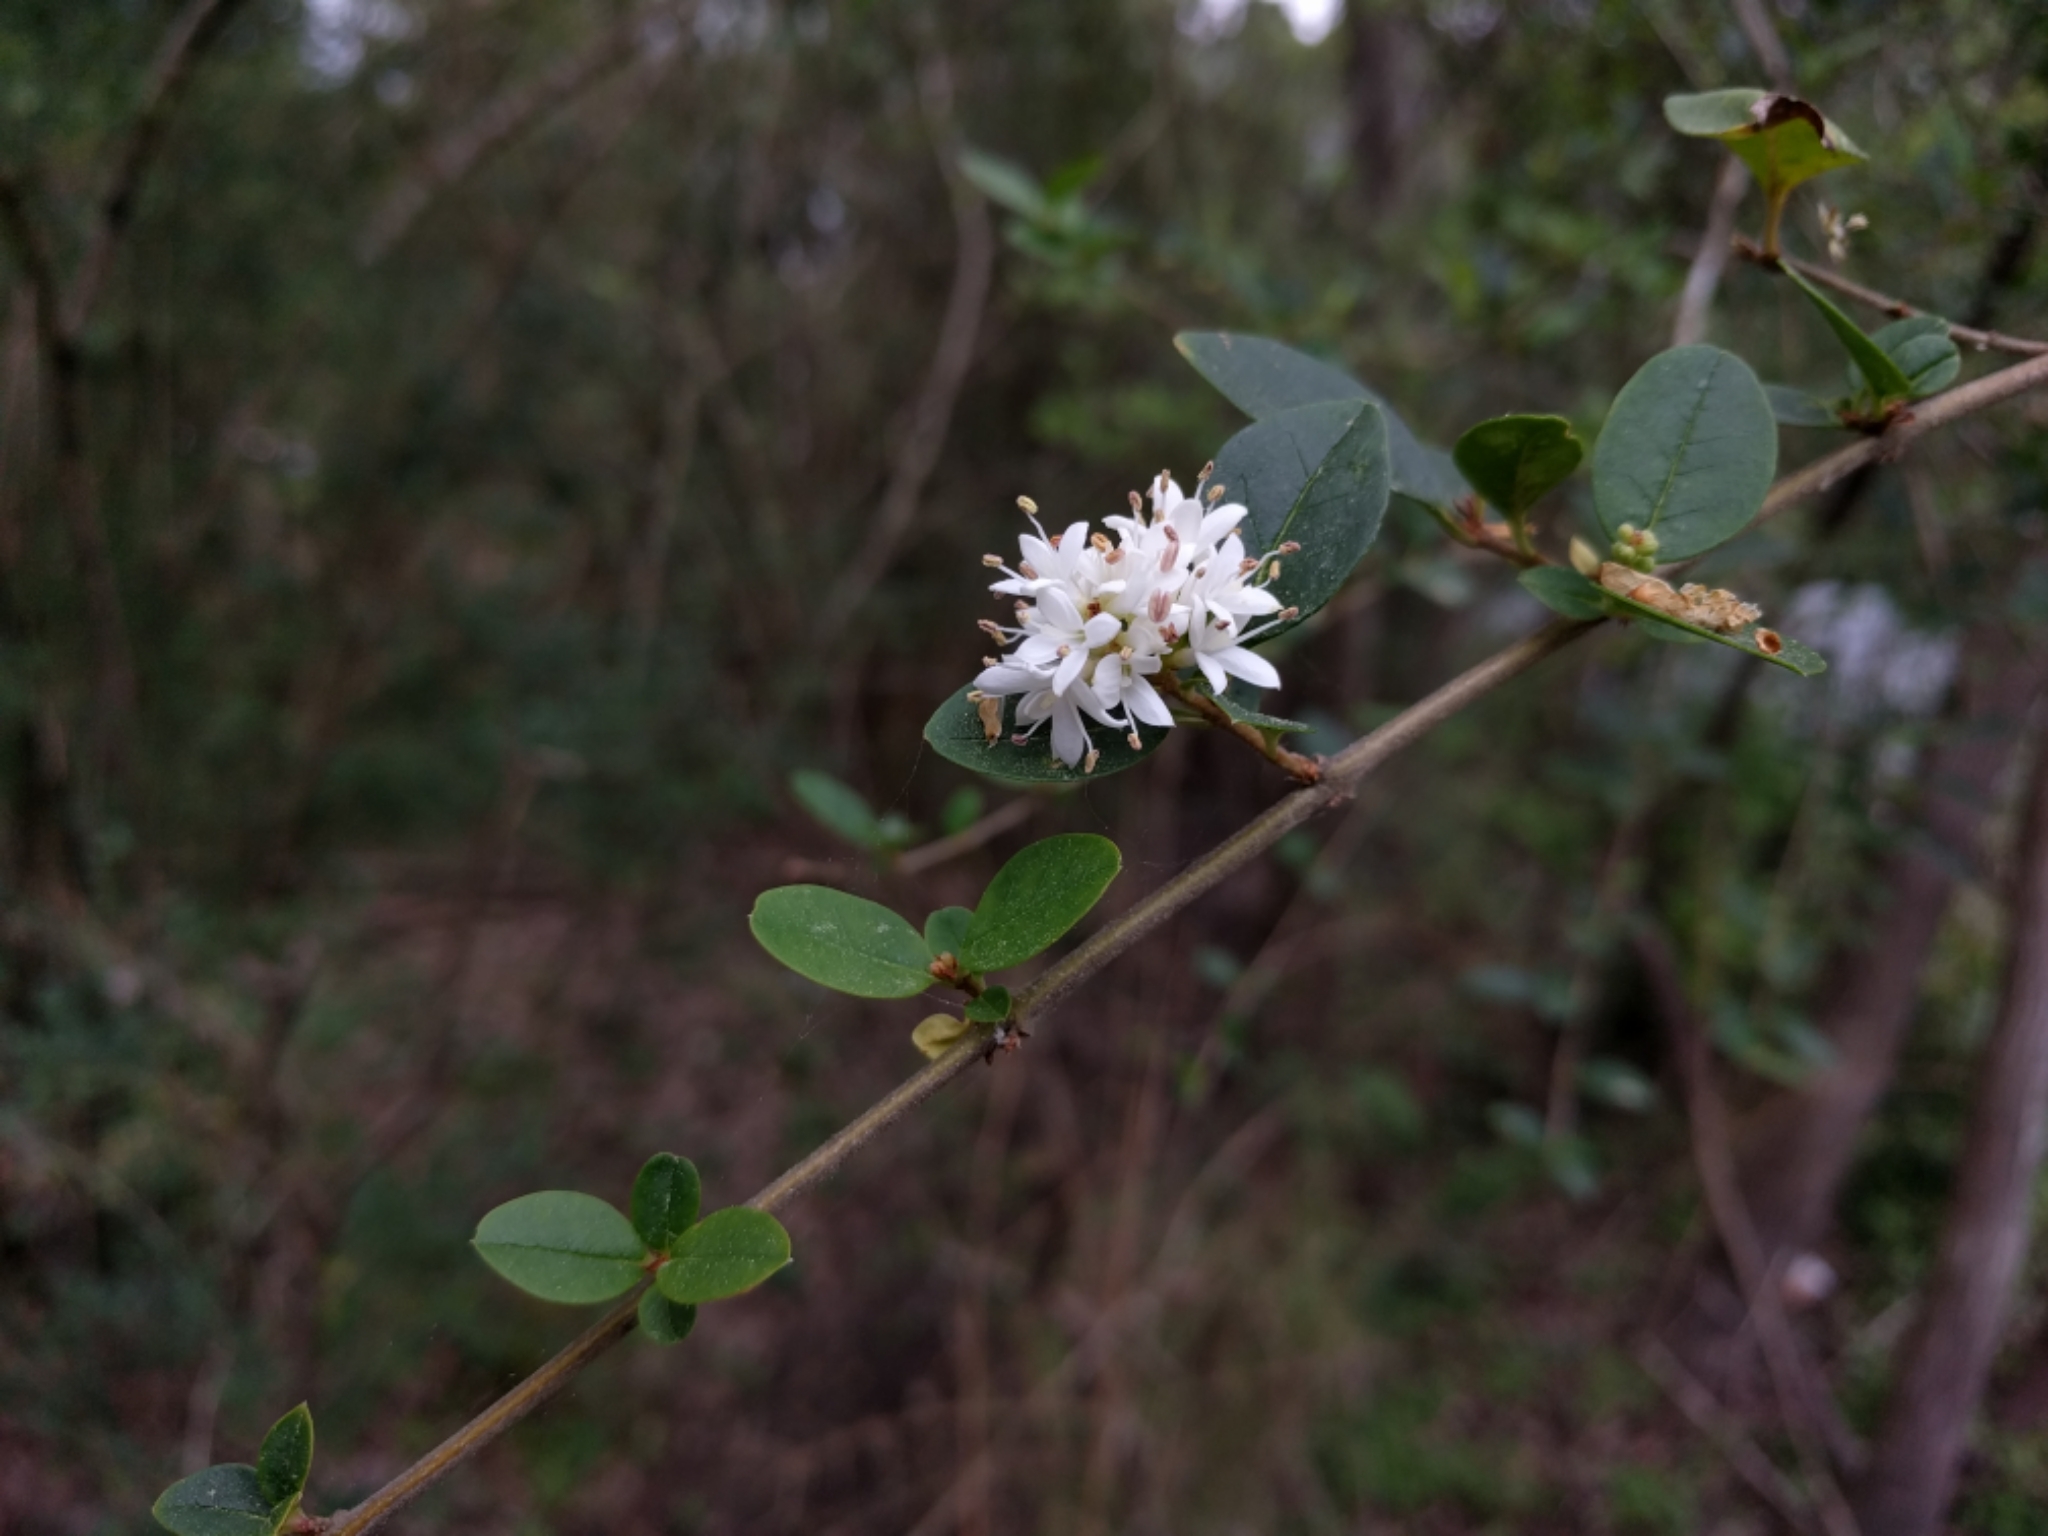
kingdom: Plantae
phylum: Tracheophyta
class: Magnoliopsida
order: Lamiales
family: Oleaceae
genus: Ligustrum
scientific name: Ligustrum sinense
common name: Chinese privet
